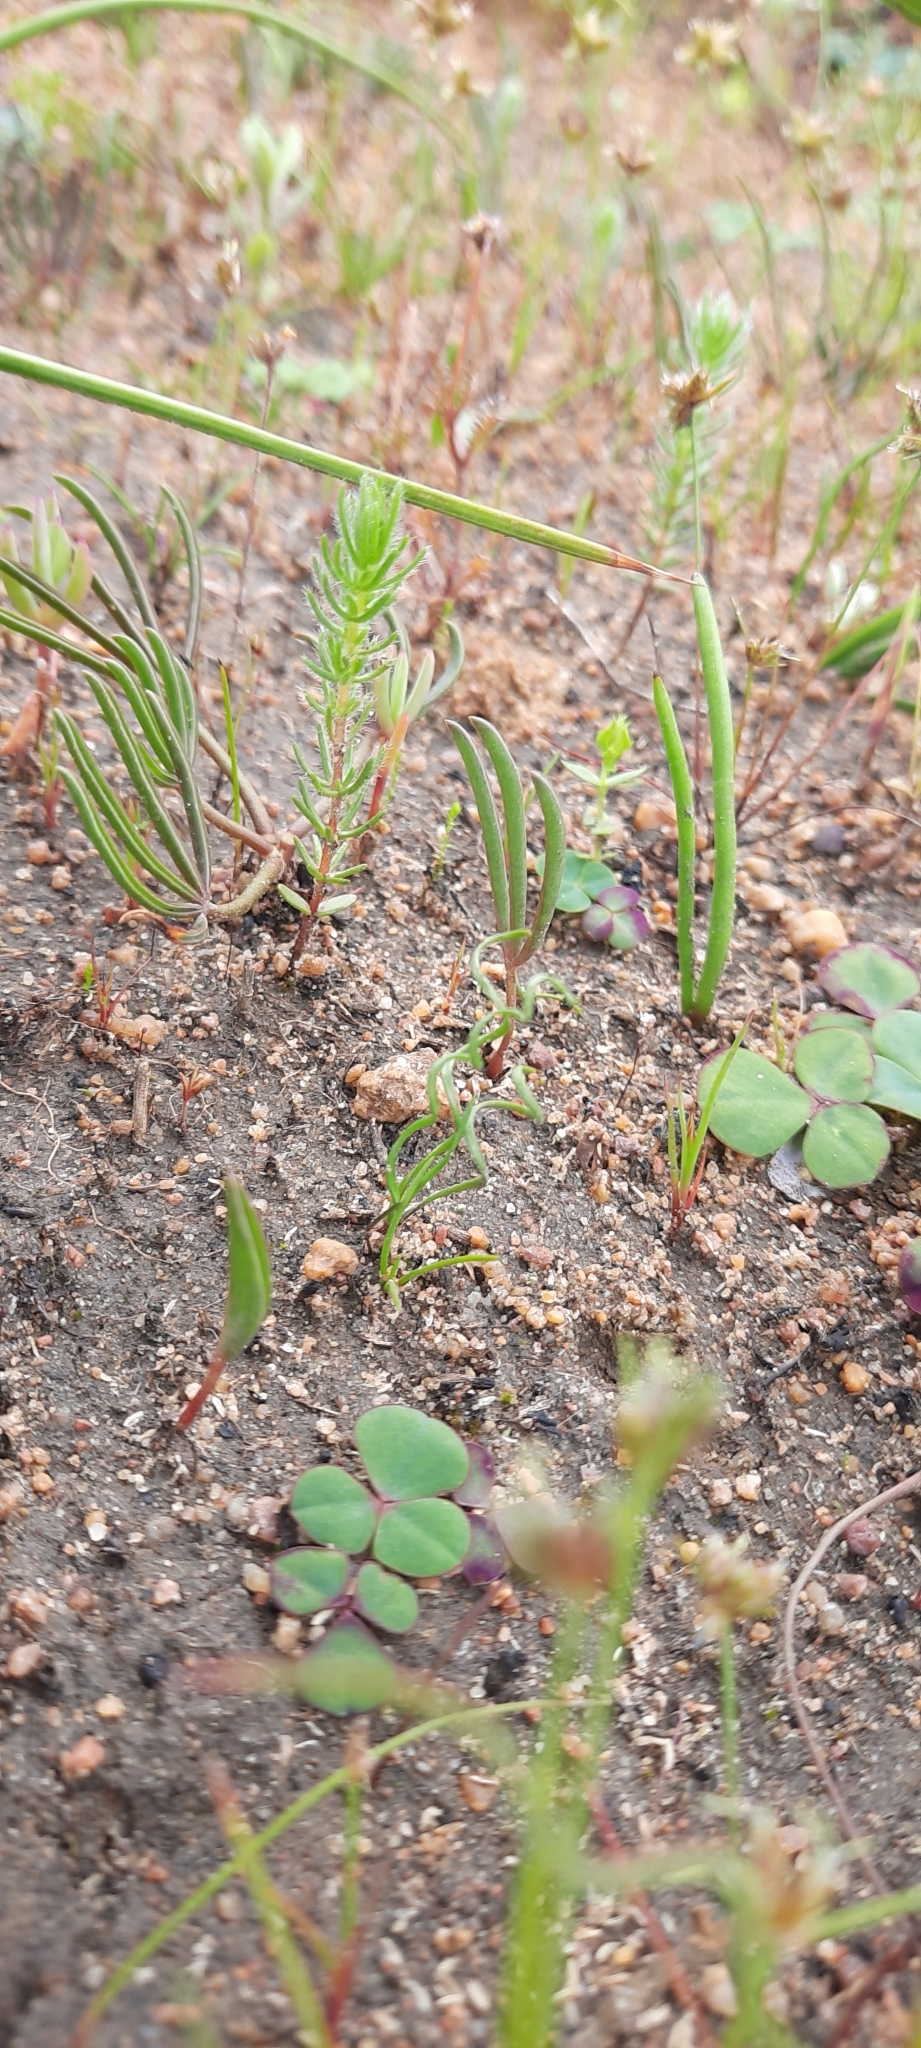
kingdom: Plantae
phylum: Tracheophyta
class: Liliopsida
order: Asparagales
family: Orchidaceae
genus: Disa
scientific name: Disa tenella
